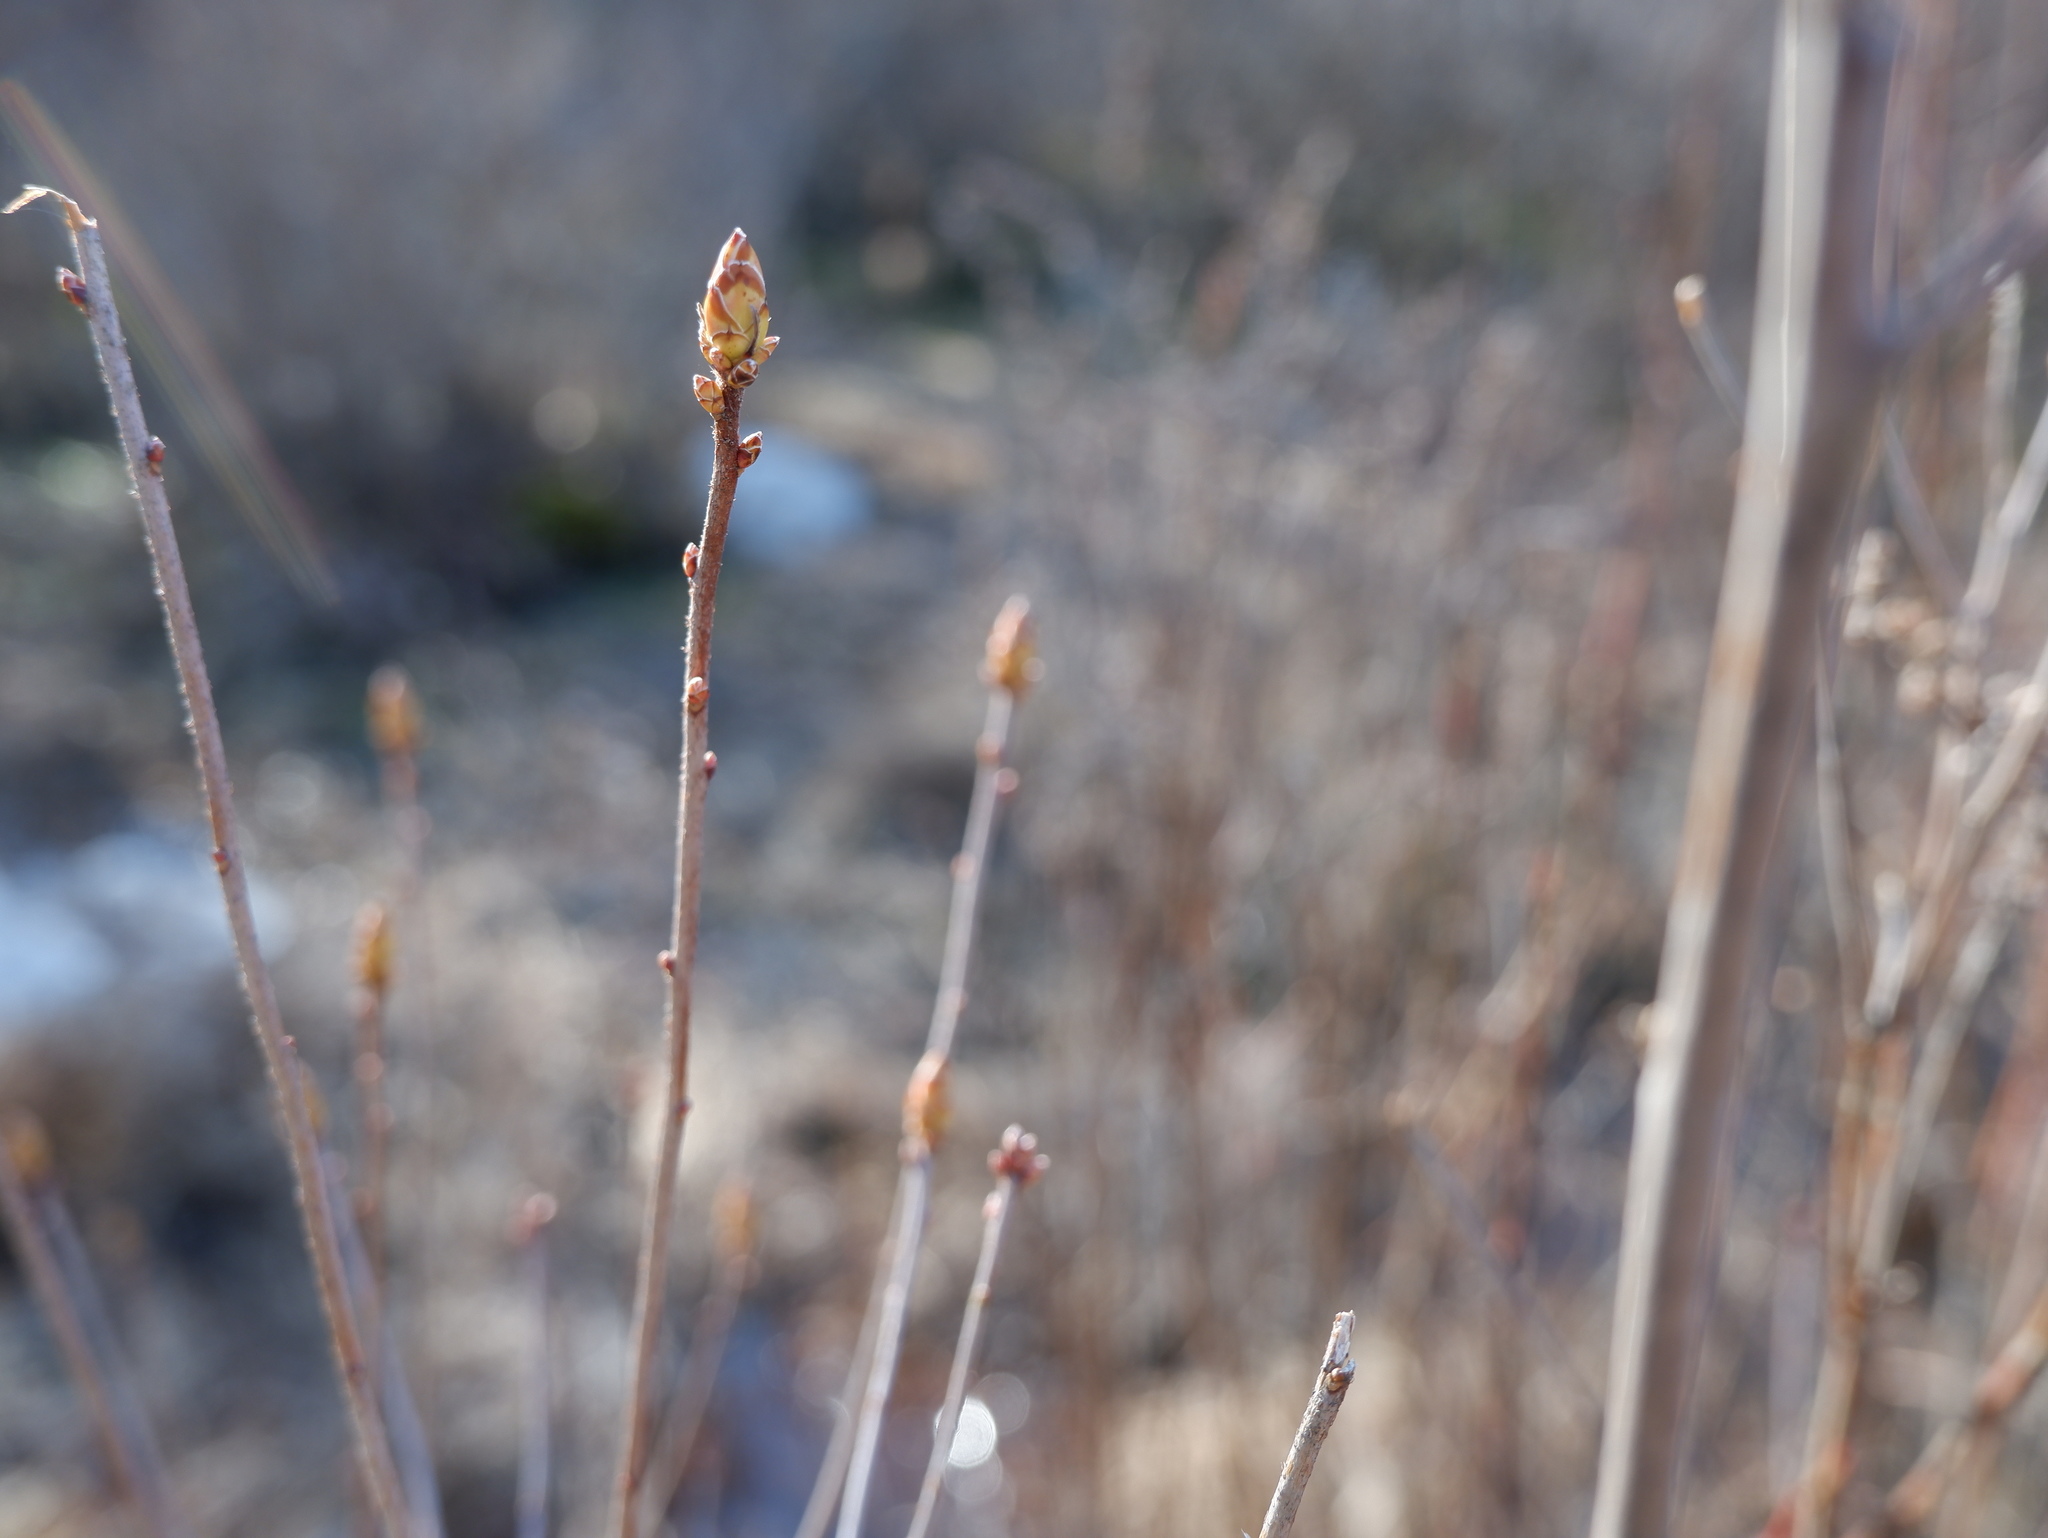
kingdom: Plantae
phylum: Tracheophyta
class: Magnoliopsida
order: Ericales
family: Ericaceae
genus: Rhododendron
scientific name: Rhododendron viscosum
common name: Clammy azalea
